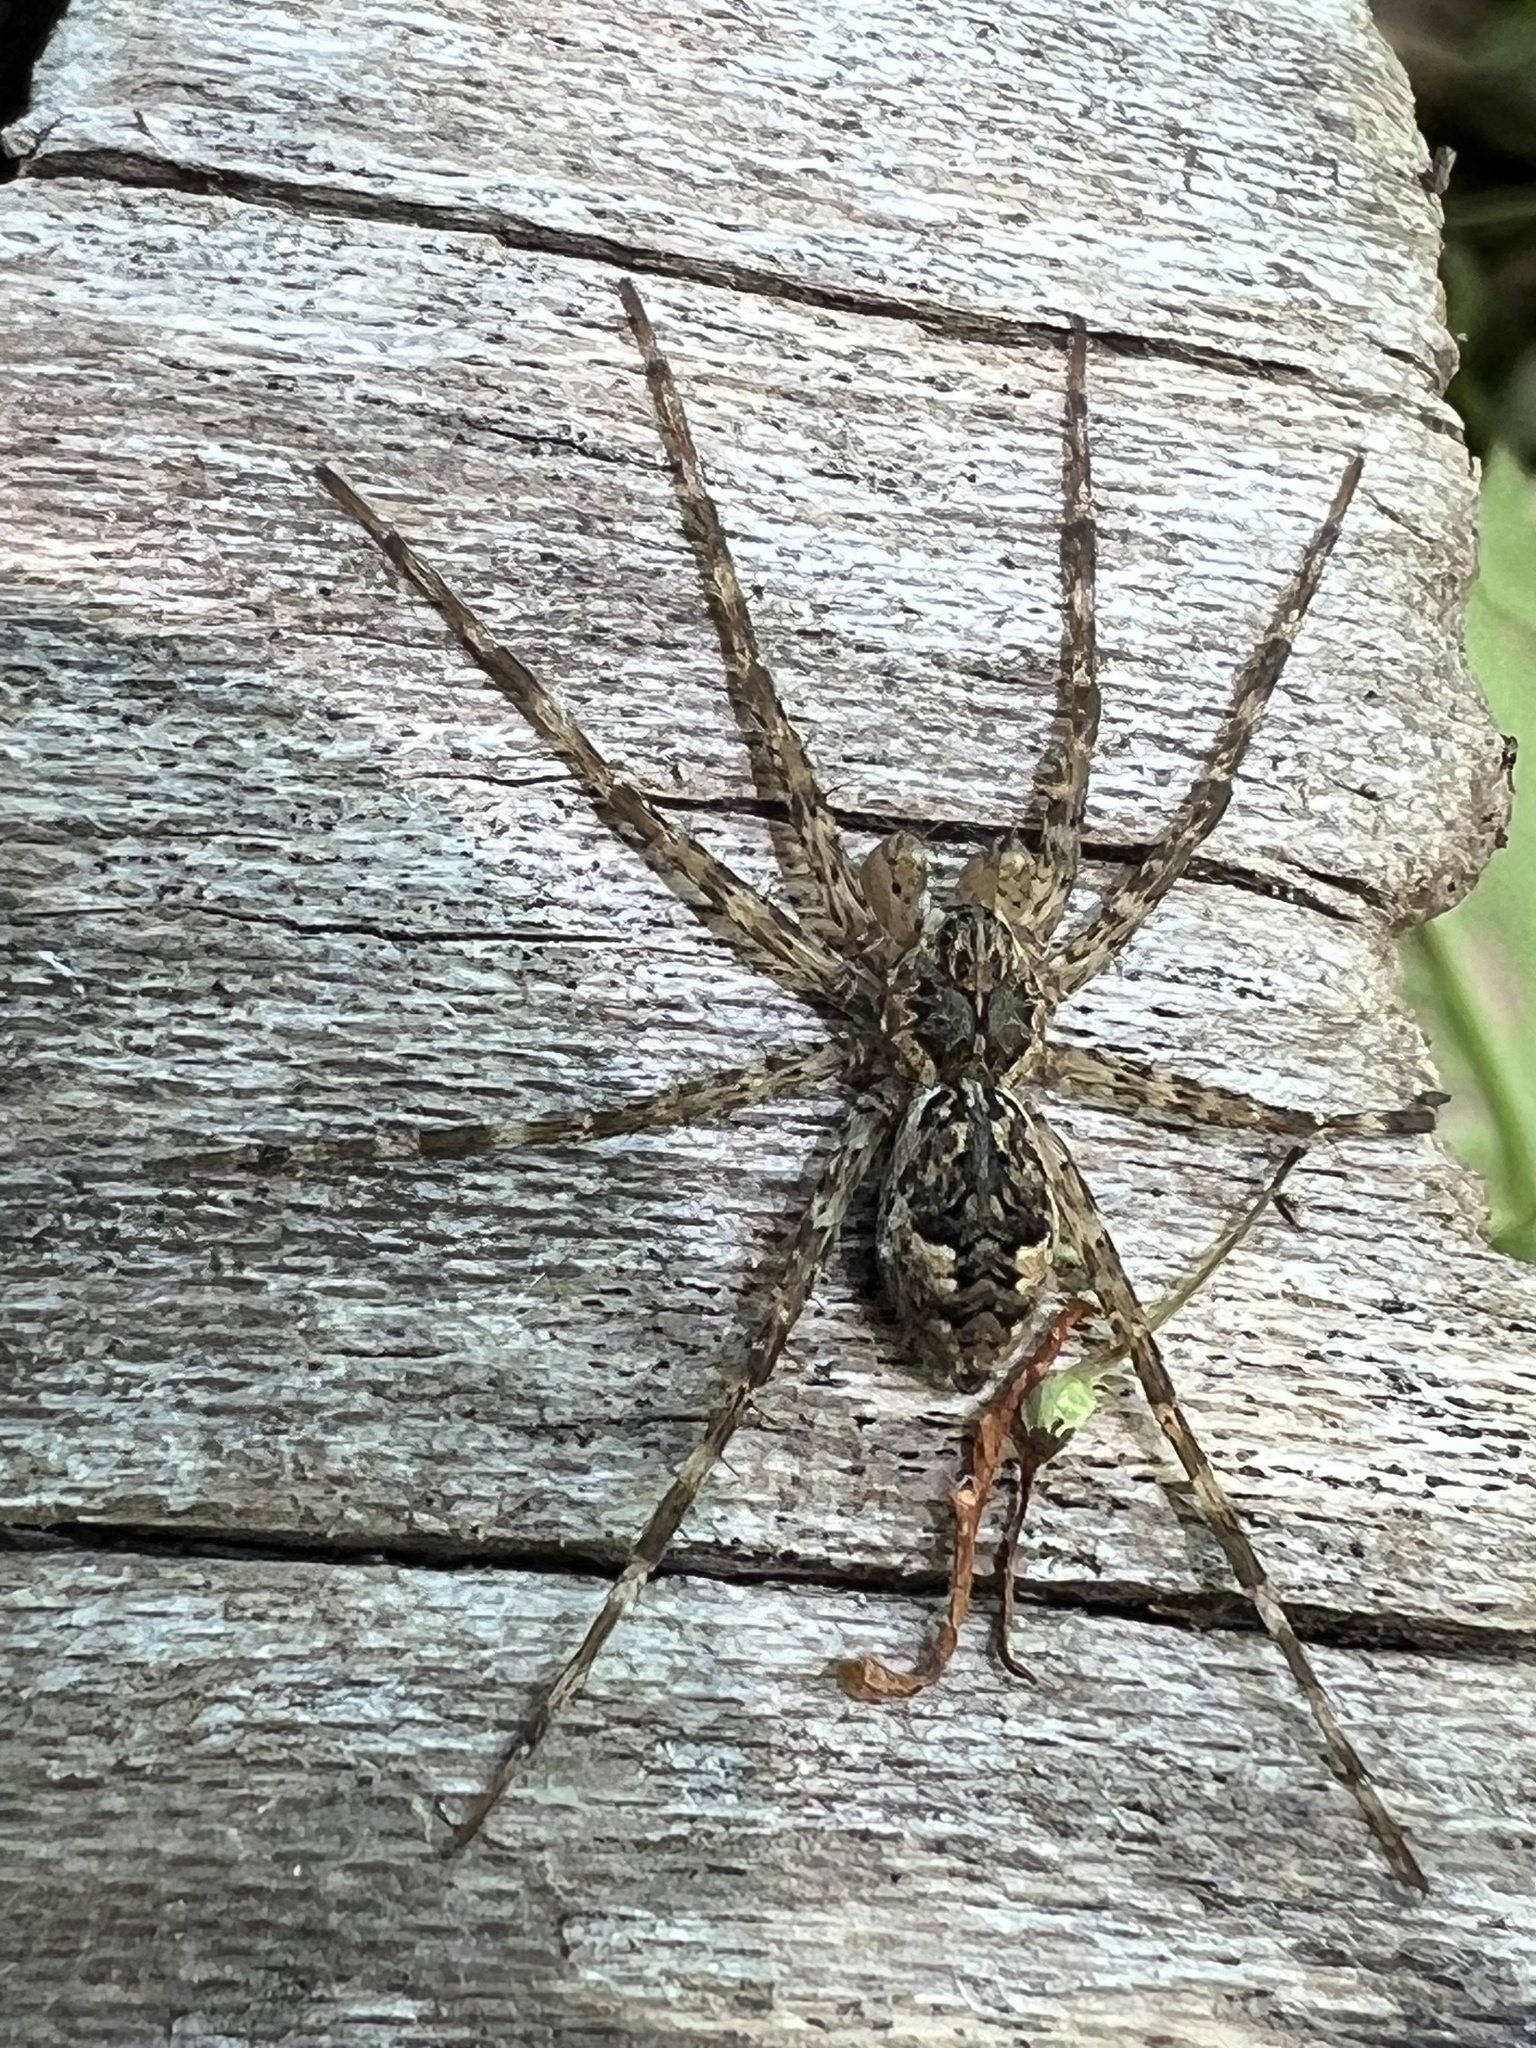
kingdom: Animalia
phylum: Arthropoda
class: Arachnida
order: Araneae
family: Pisauridae
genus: Dolomedes
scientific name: Dolomedes tenebrosus
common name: Dark fishing spider
